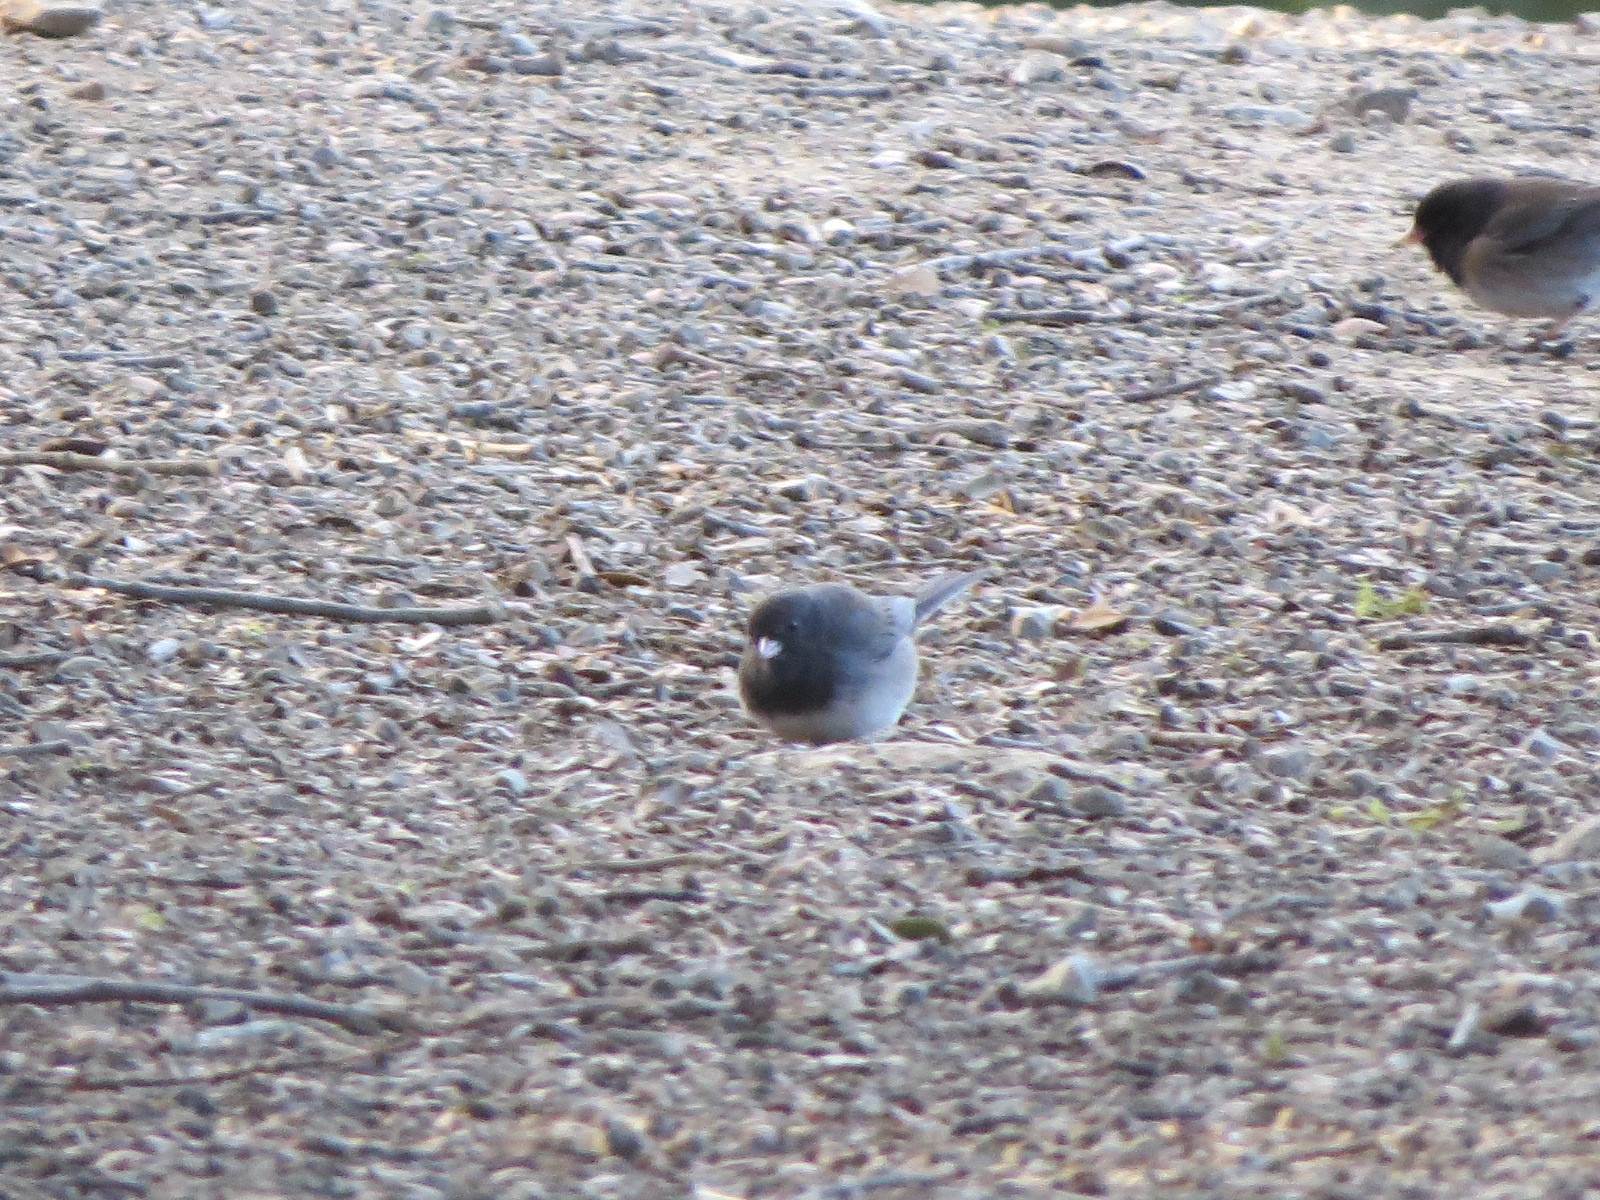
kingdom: Animalia
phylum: Chordata
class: Aves
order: Passeriformes
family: Passerellidae
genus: Junco
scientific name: Junco hyemalis
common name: Dark-eyed junco
